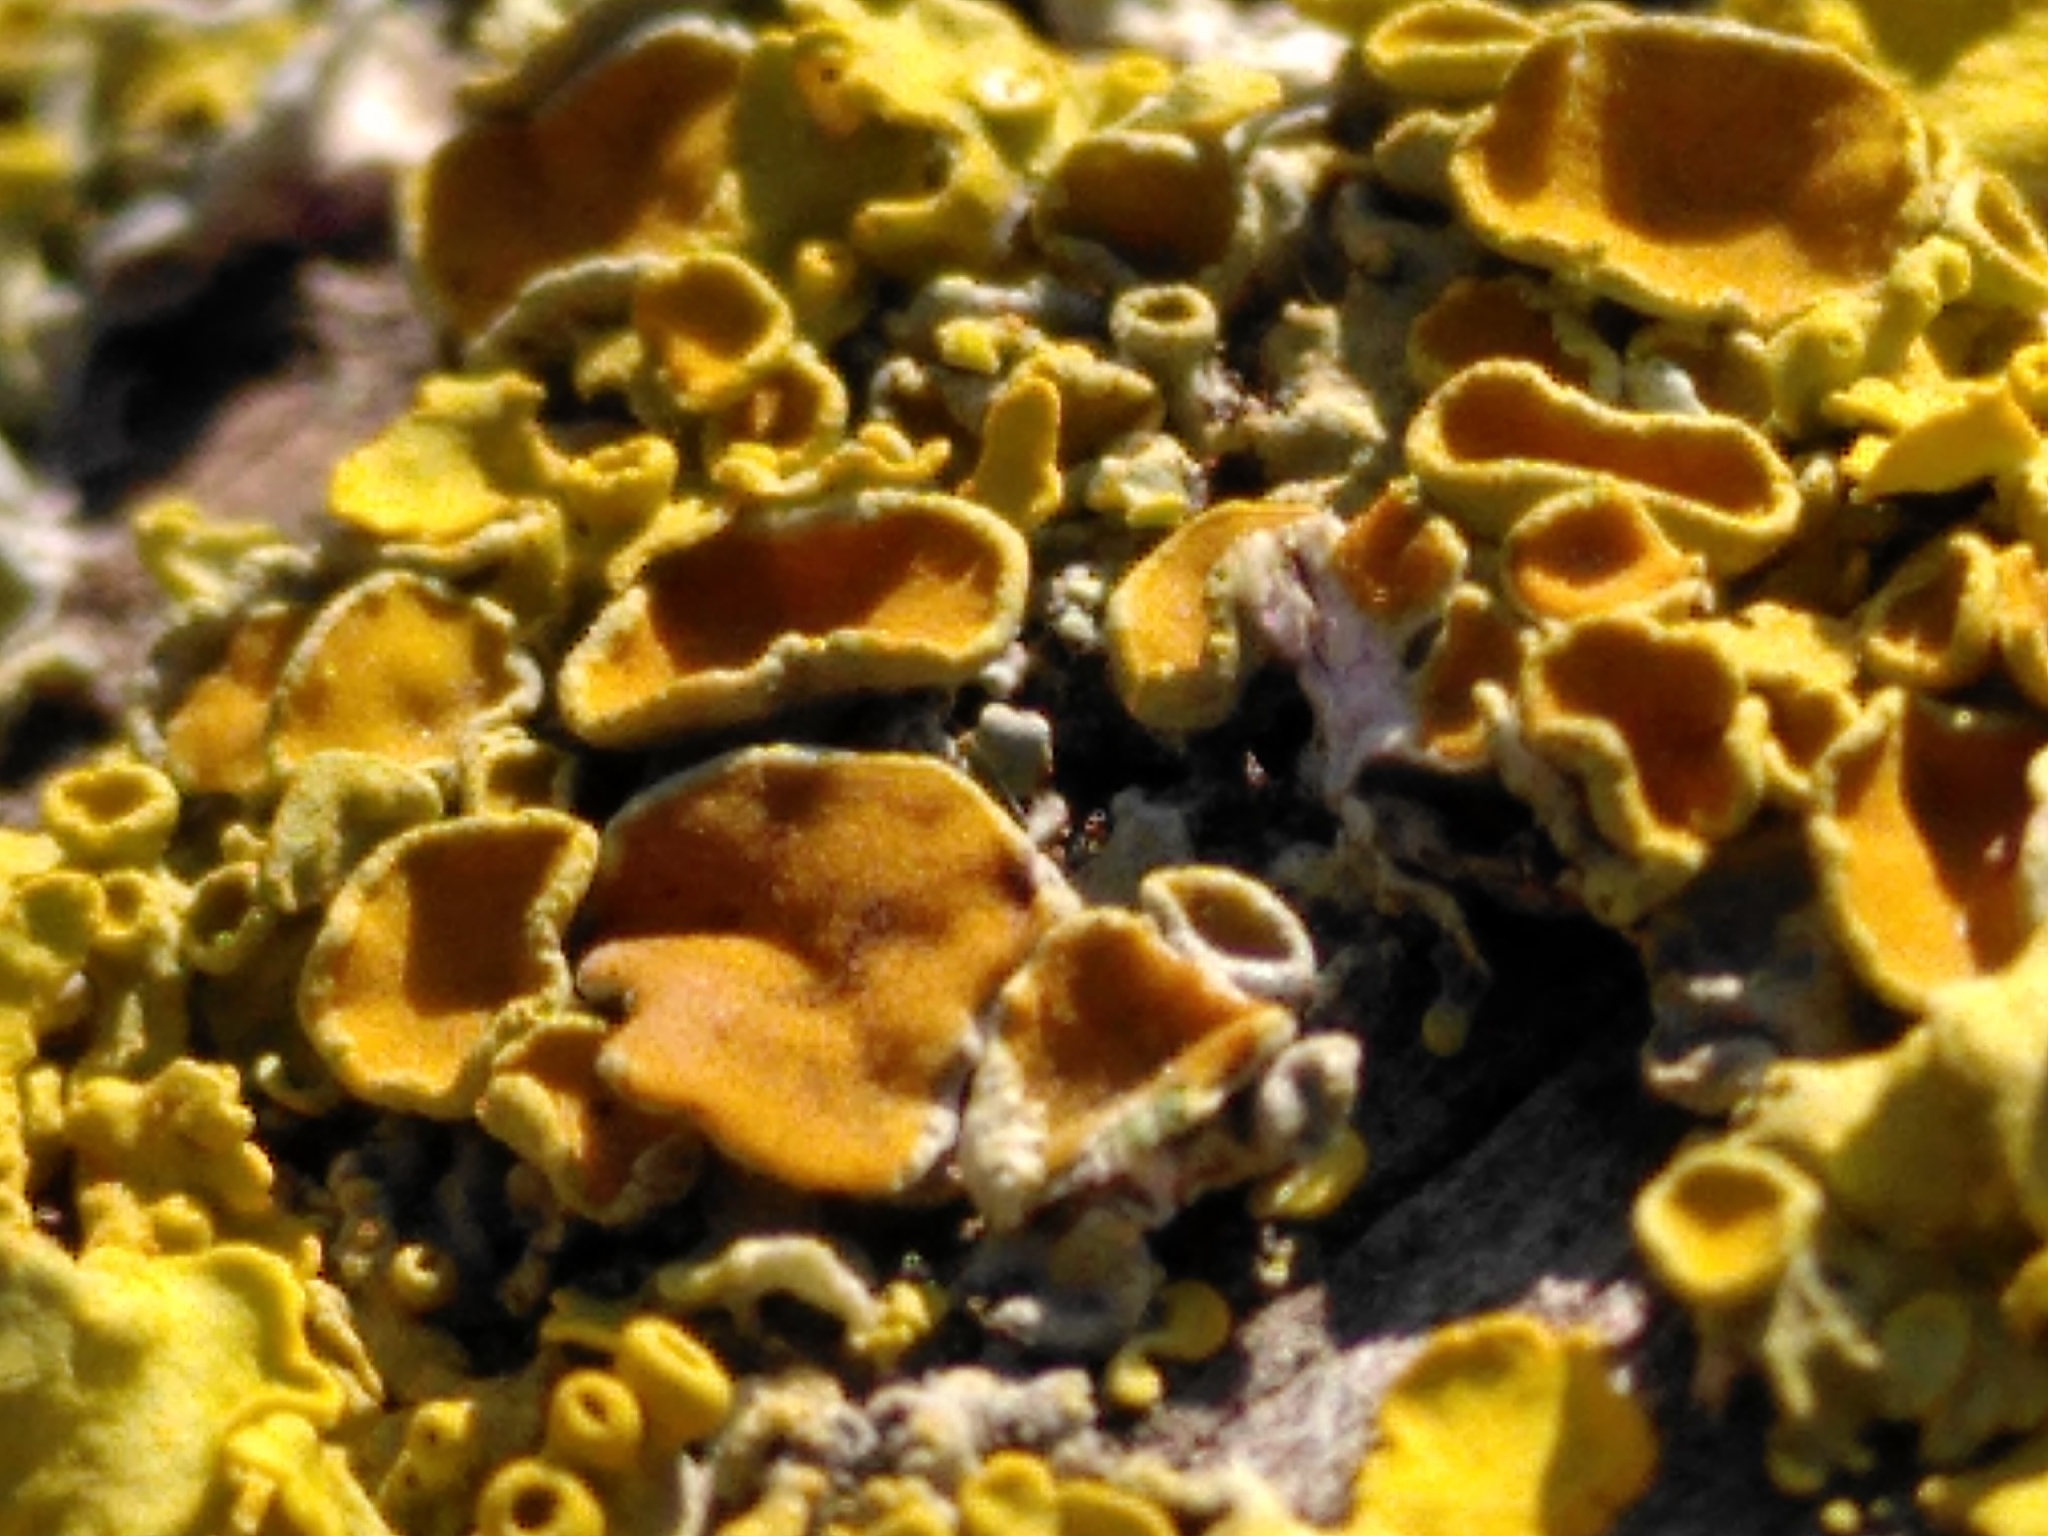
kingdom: Fungi
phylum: Ascomycota
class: Lecanoromycetes
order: Teloschistales
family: Teloschistaceae
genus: Xanthoria
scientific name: Xanthoria parietina
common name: Common orange lichen
